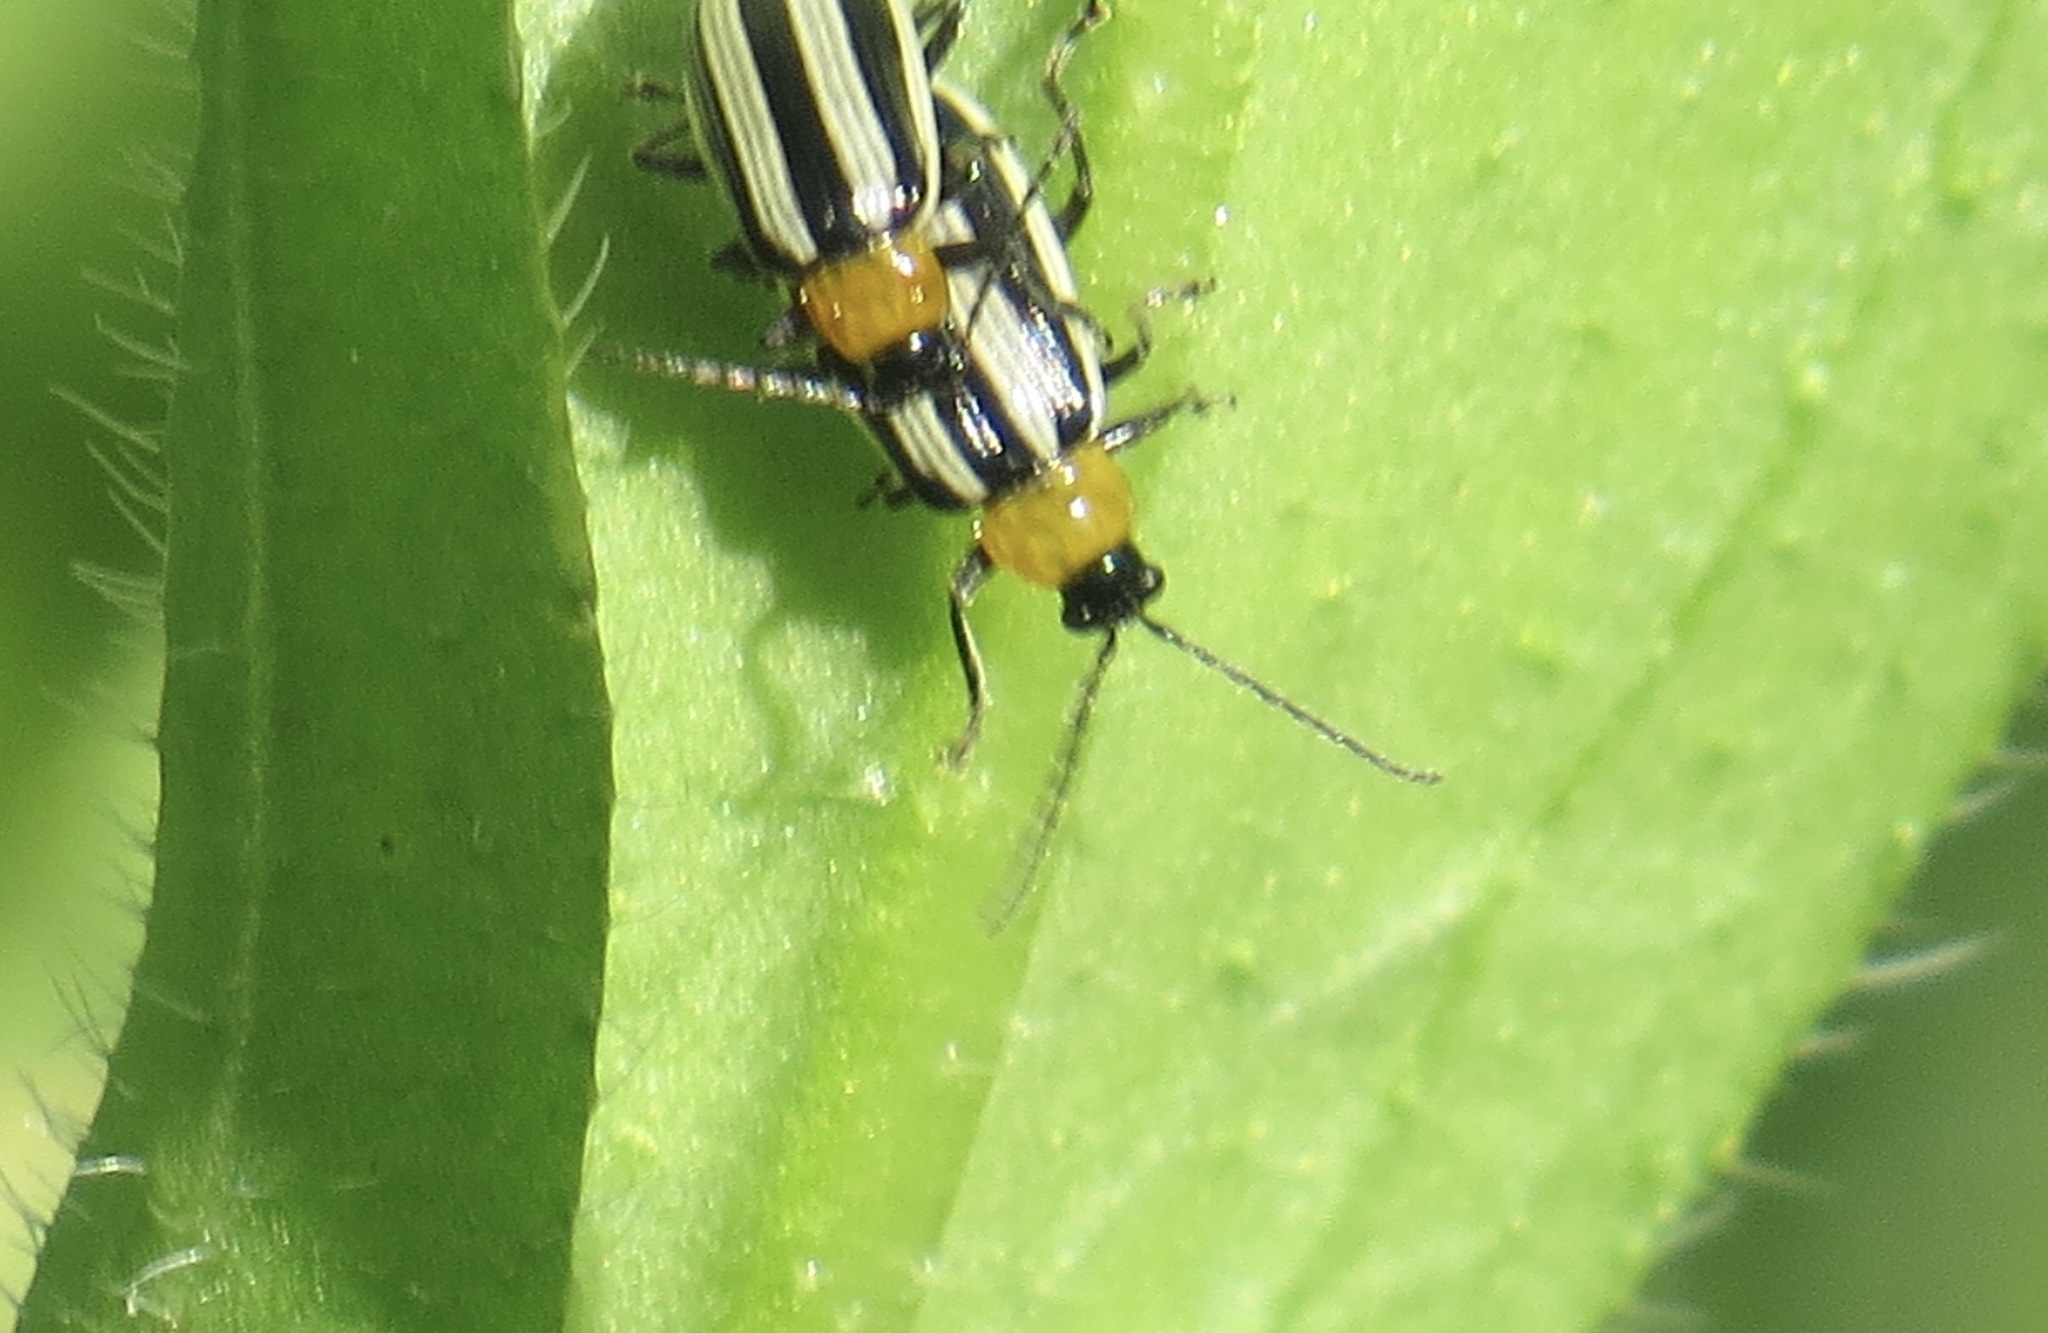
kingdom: Animalia
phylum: Arthropoda
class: Insecta
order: Coleoptera
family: Chrysomelidae
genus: Acalymma
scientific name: Acalymma trivittatum
